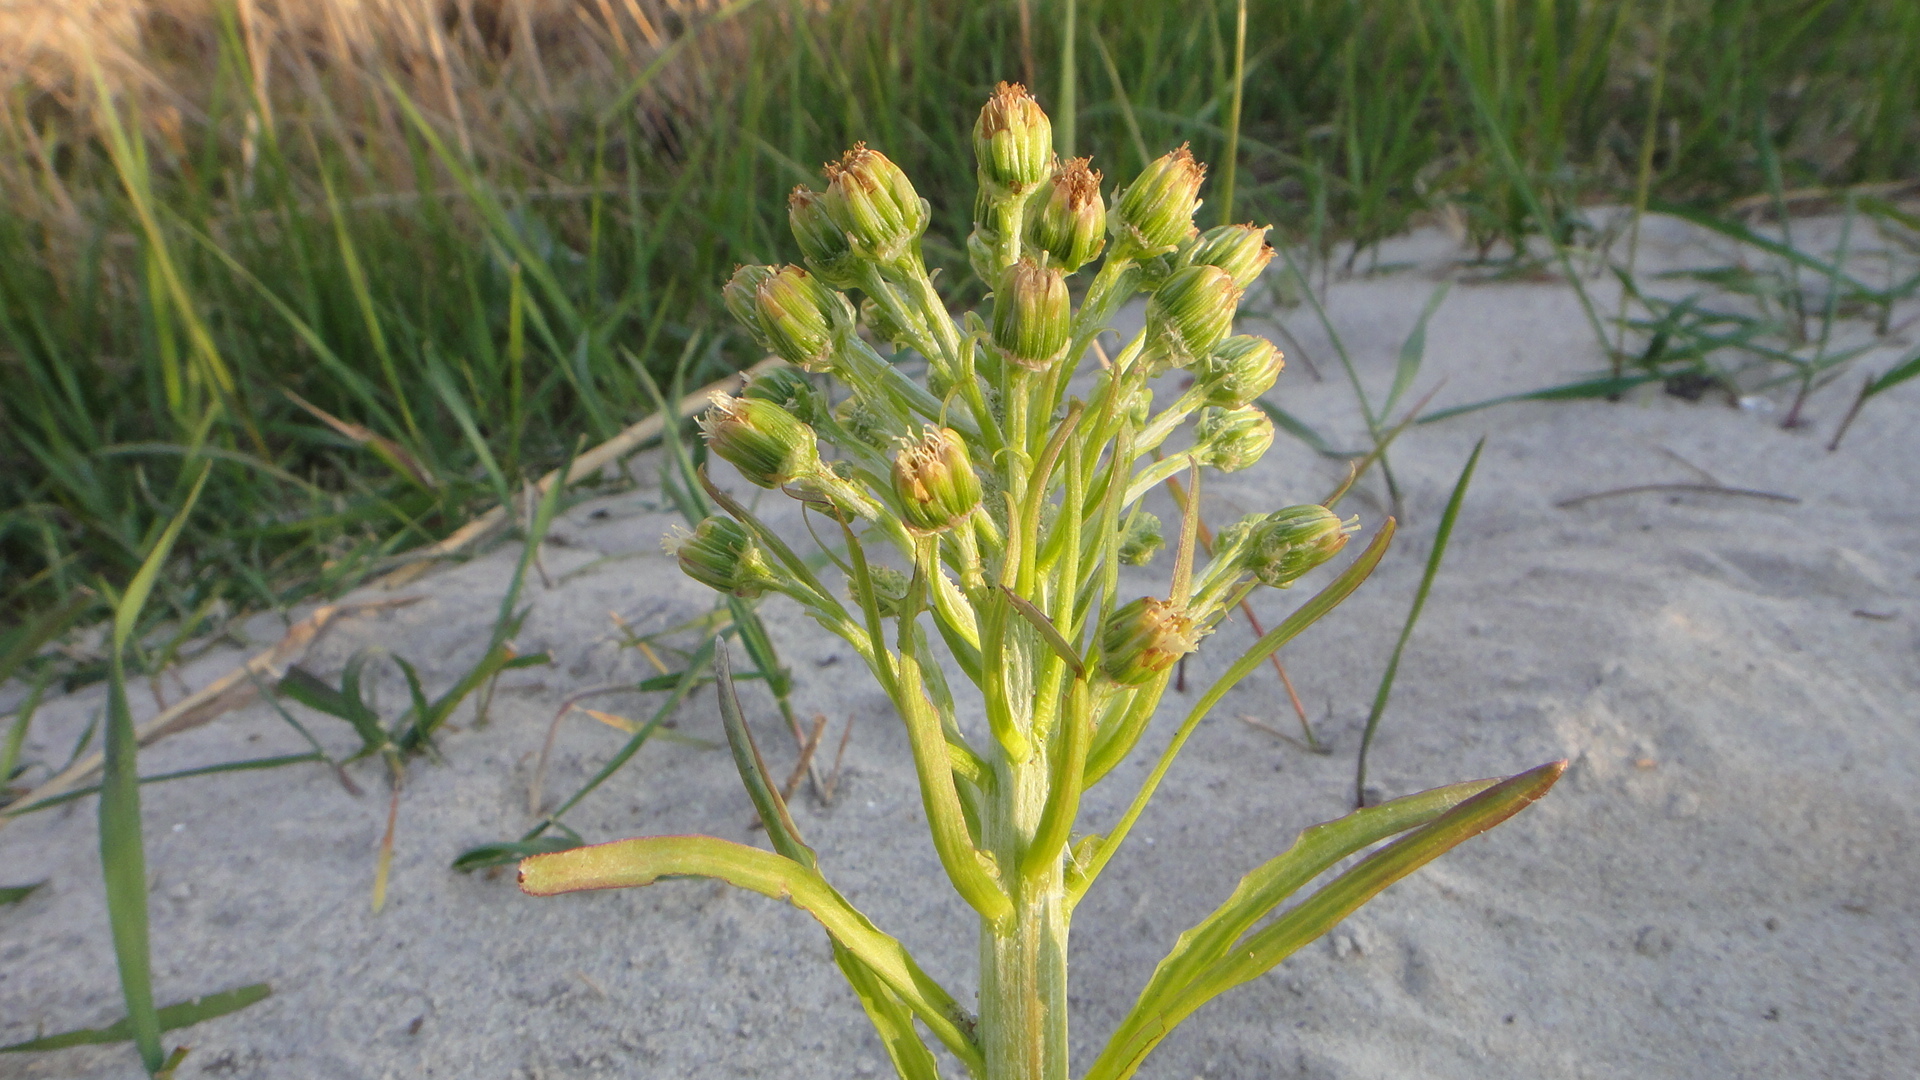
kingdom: Plantae
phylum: Tracheophyta
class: Magnoliopsida
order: Asterales
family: Asteraceae
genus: Petasites
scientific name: Petasites spurius
